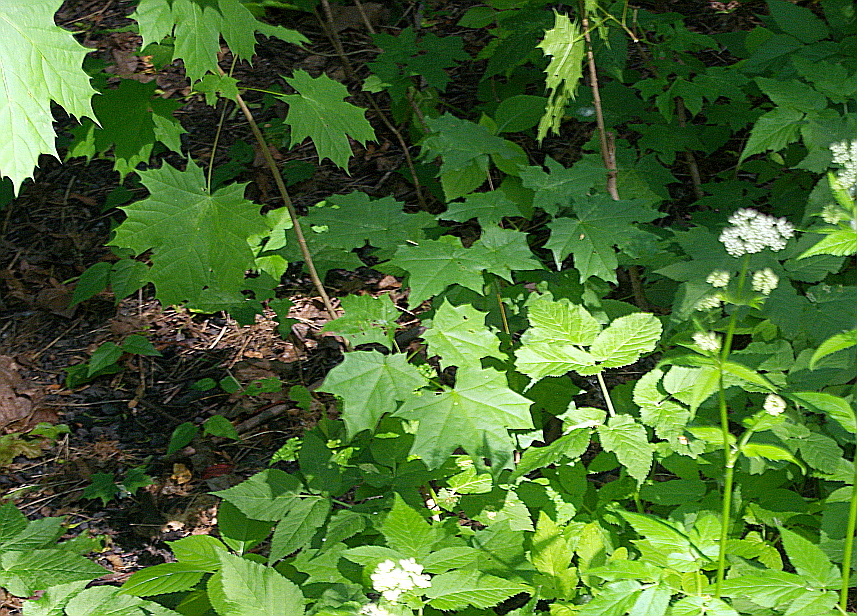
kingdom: Plantae
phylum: Tracheophyta
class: Magnoliopsida
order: Sapindales
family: Sapindaceae
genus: Acer
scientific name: Acer platanoides
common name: Norway maple
